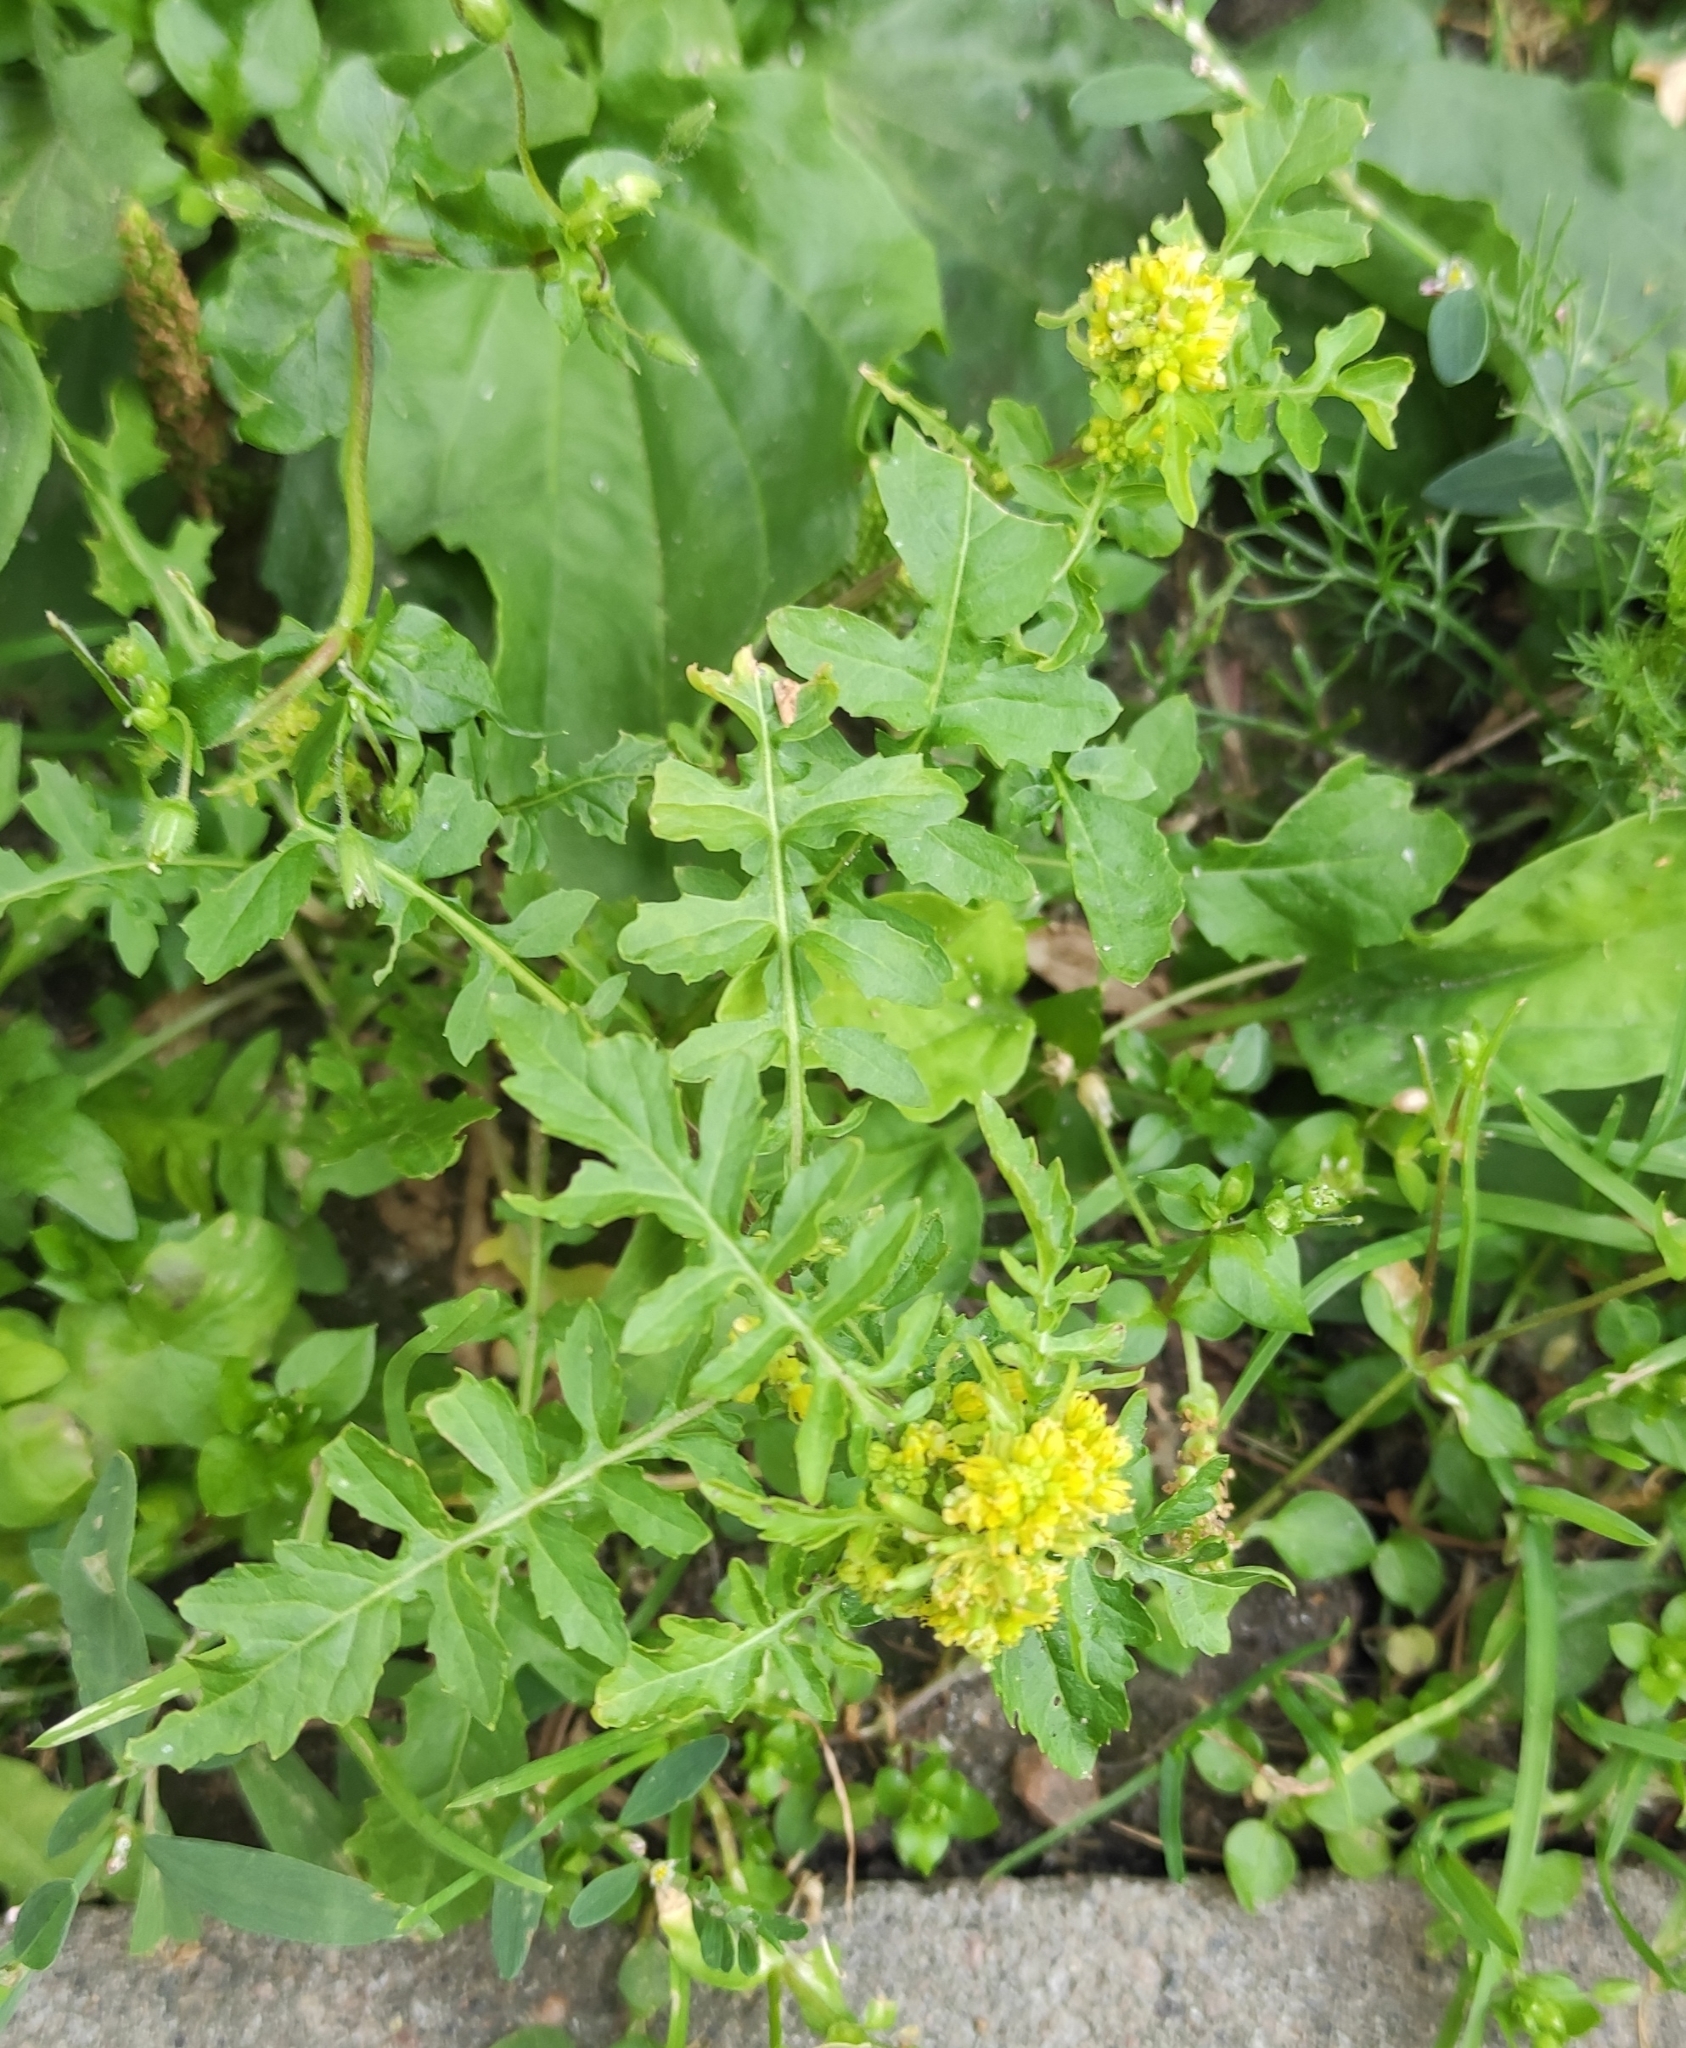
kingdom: Plantae
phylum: Tracheophyta
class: Magnoliopsida
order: Brassicales
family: Brassicaceae
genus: Rorippa
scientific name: Rorippa palustris
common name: Marsh yellow-cress
